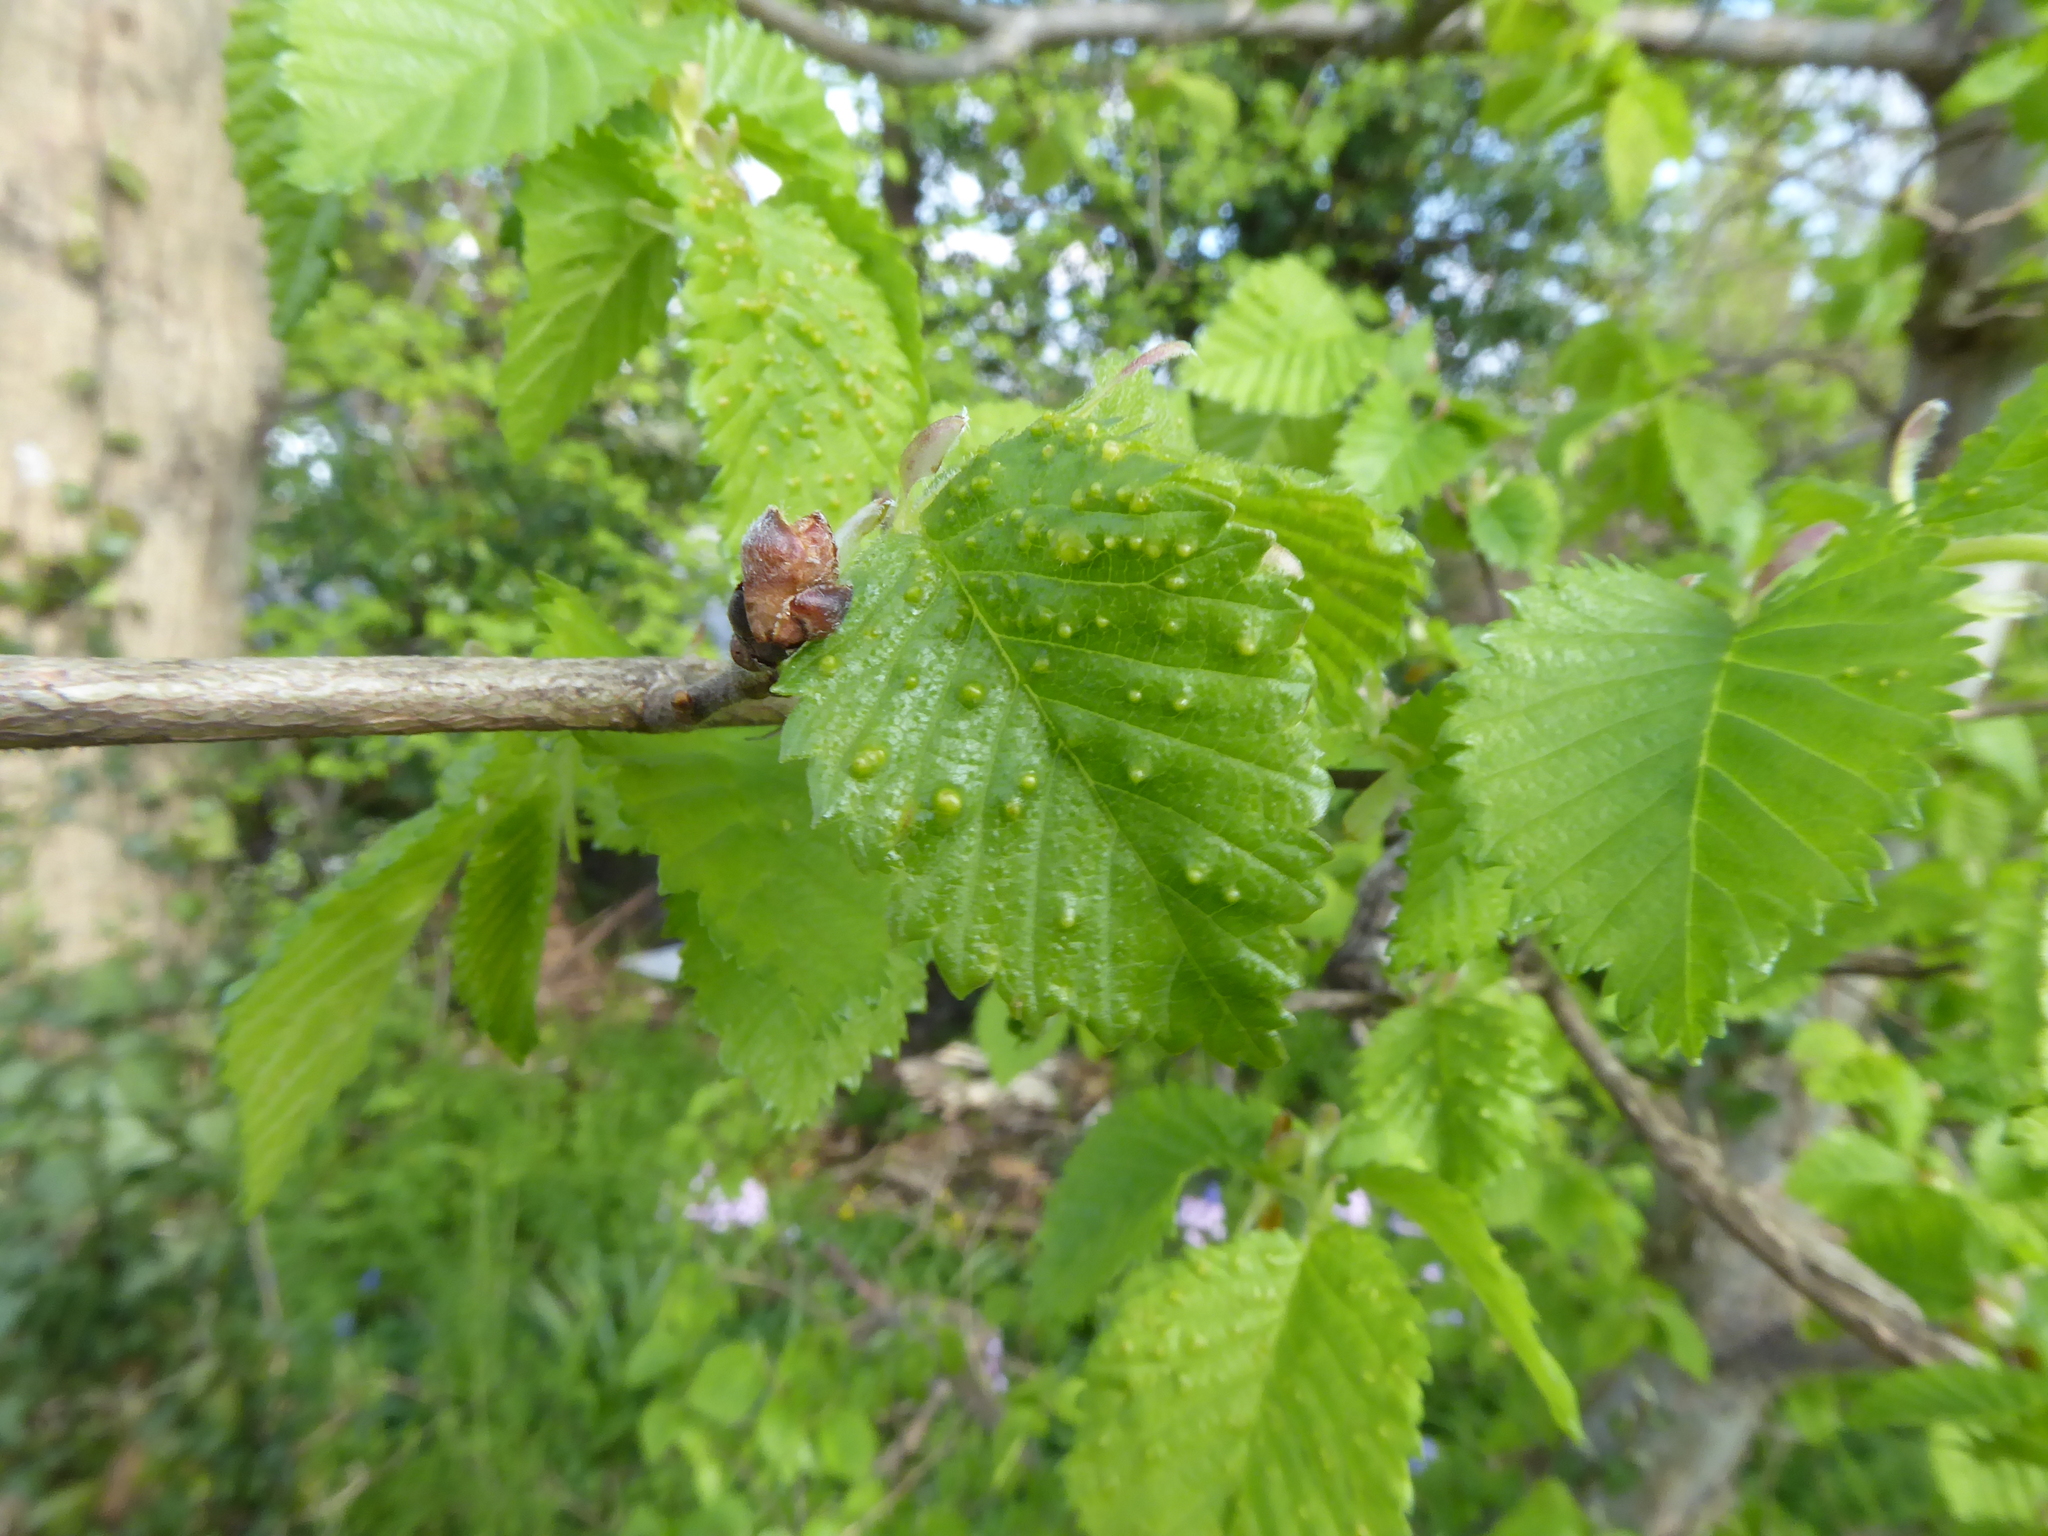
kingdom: Animalia
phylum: Arthropoda
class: Arachnida
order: Trombidiformes
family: Eriophyidae
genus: Aceria
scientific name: Aceria brevipunctata
